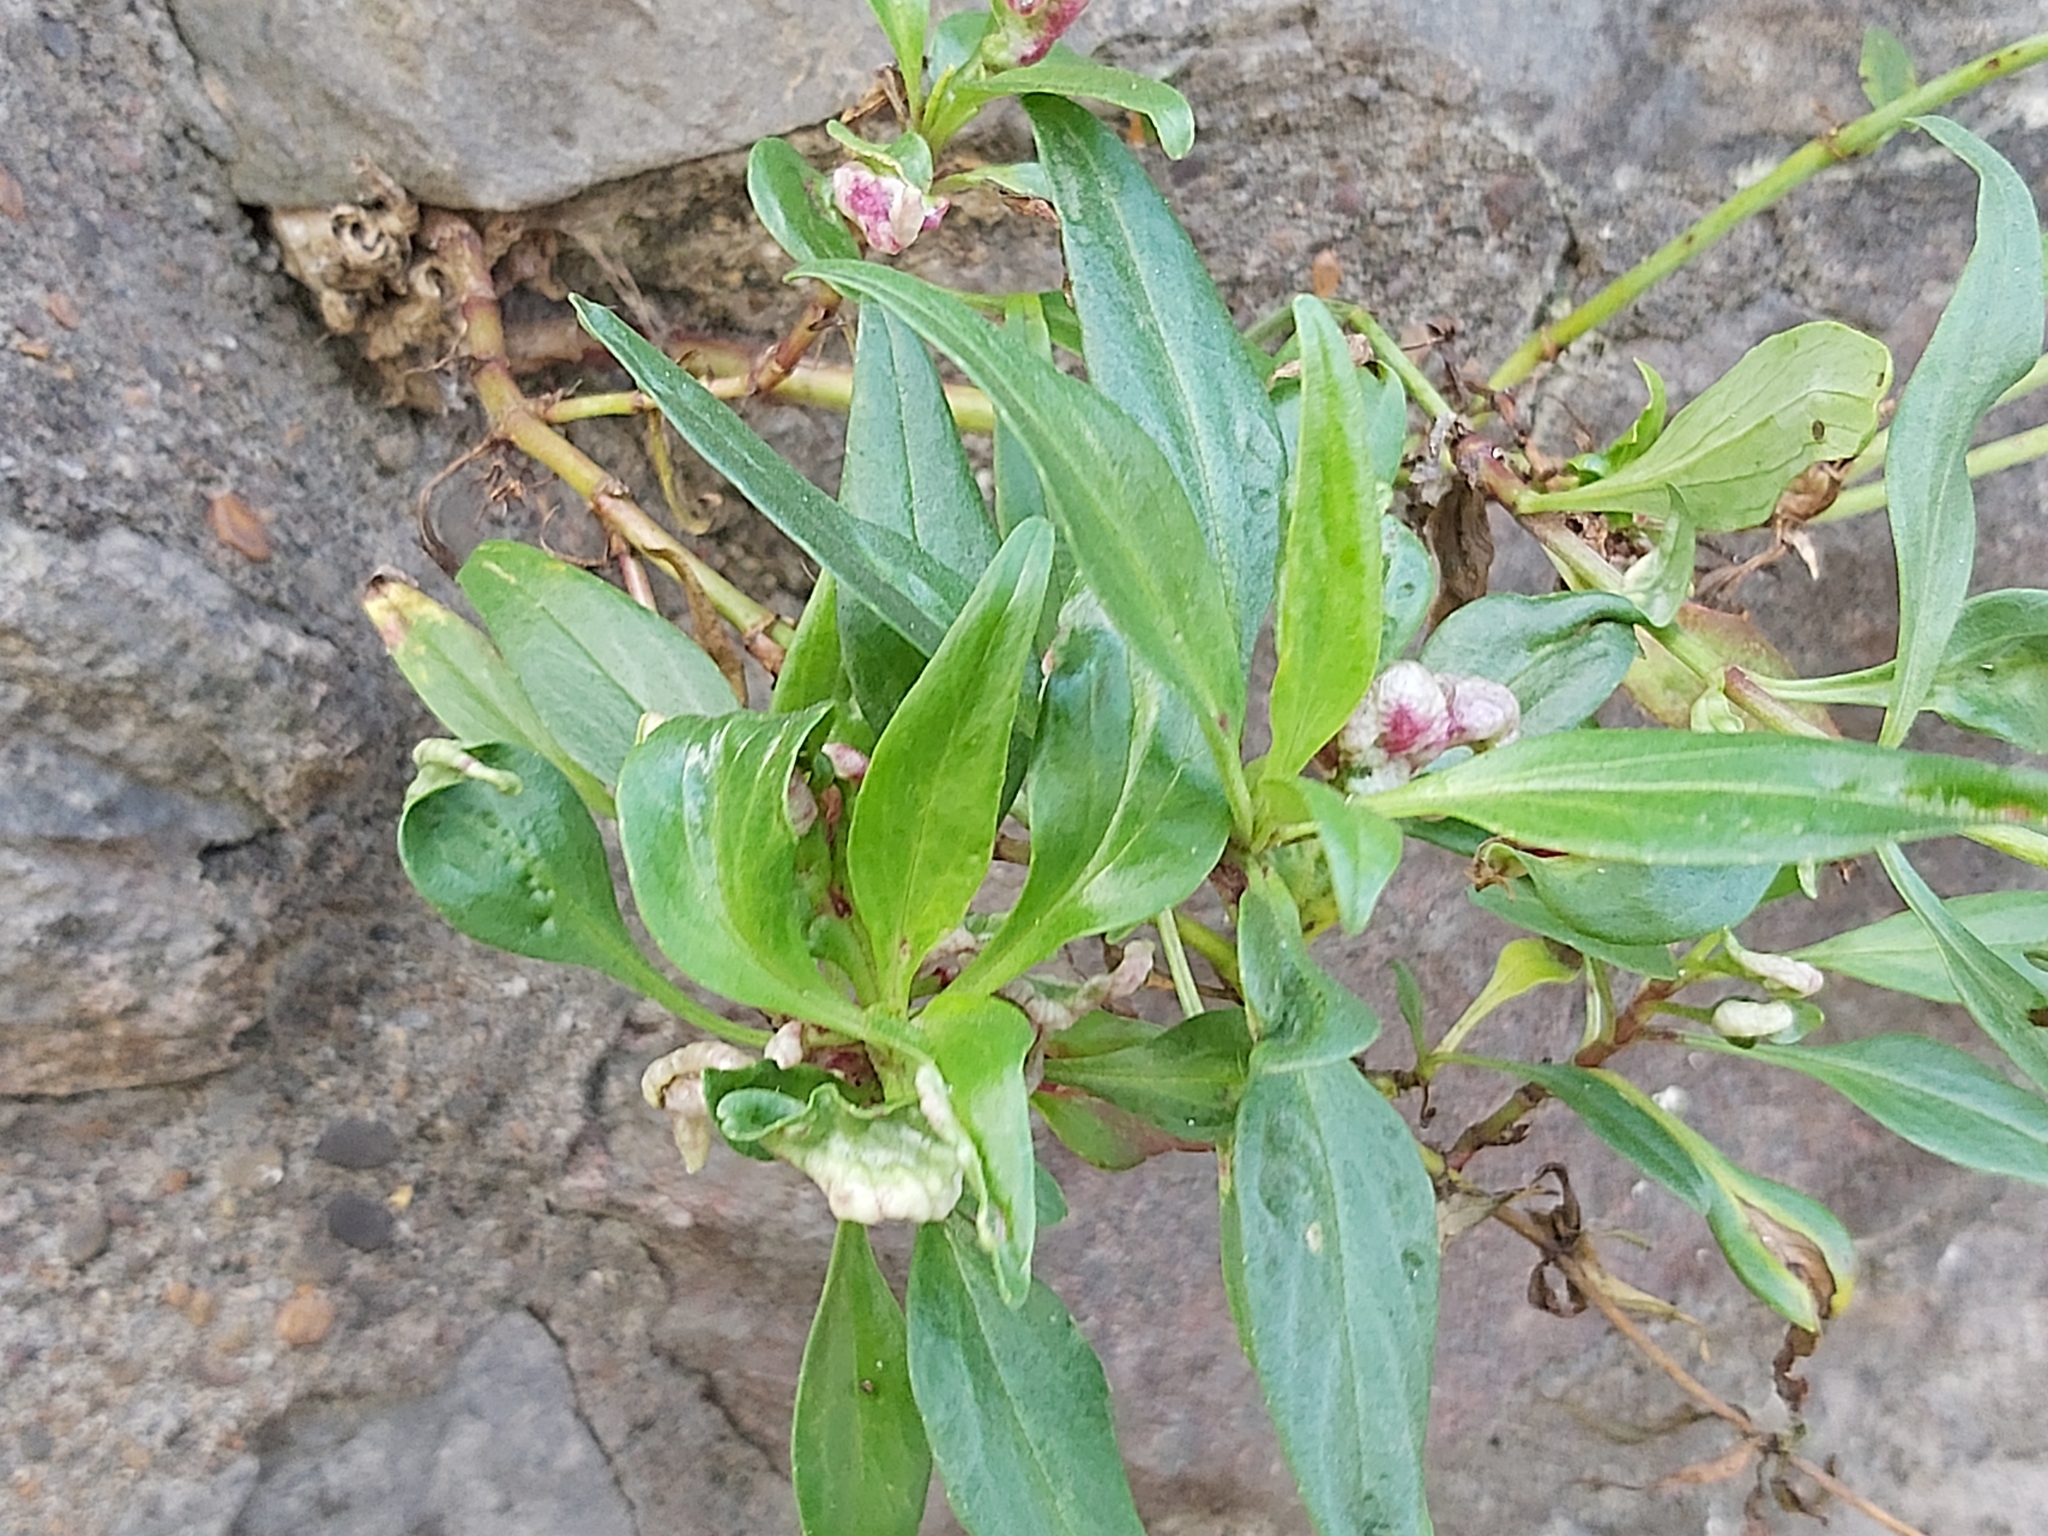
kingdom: Plantae
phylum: Tracheophyta
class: Magnoliopsida
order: Dipsacales
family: Caprifoliaceae
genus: Centranthus
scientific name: Centranthus ruber
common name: Red valerian
